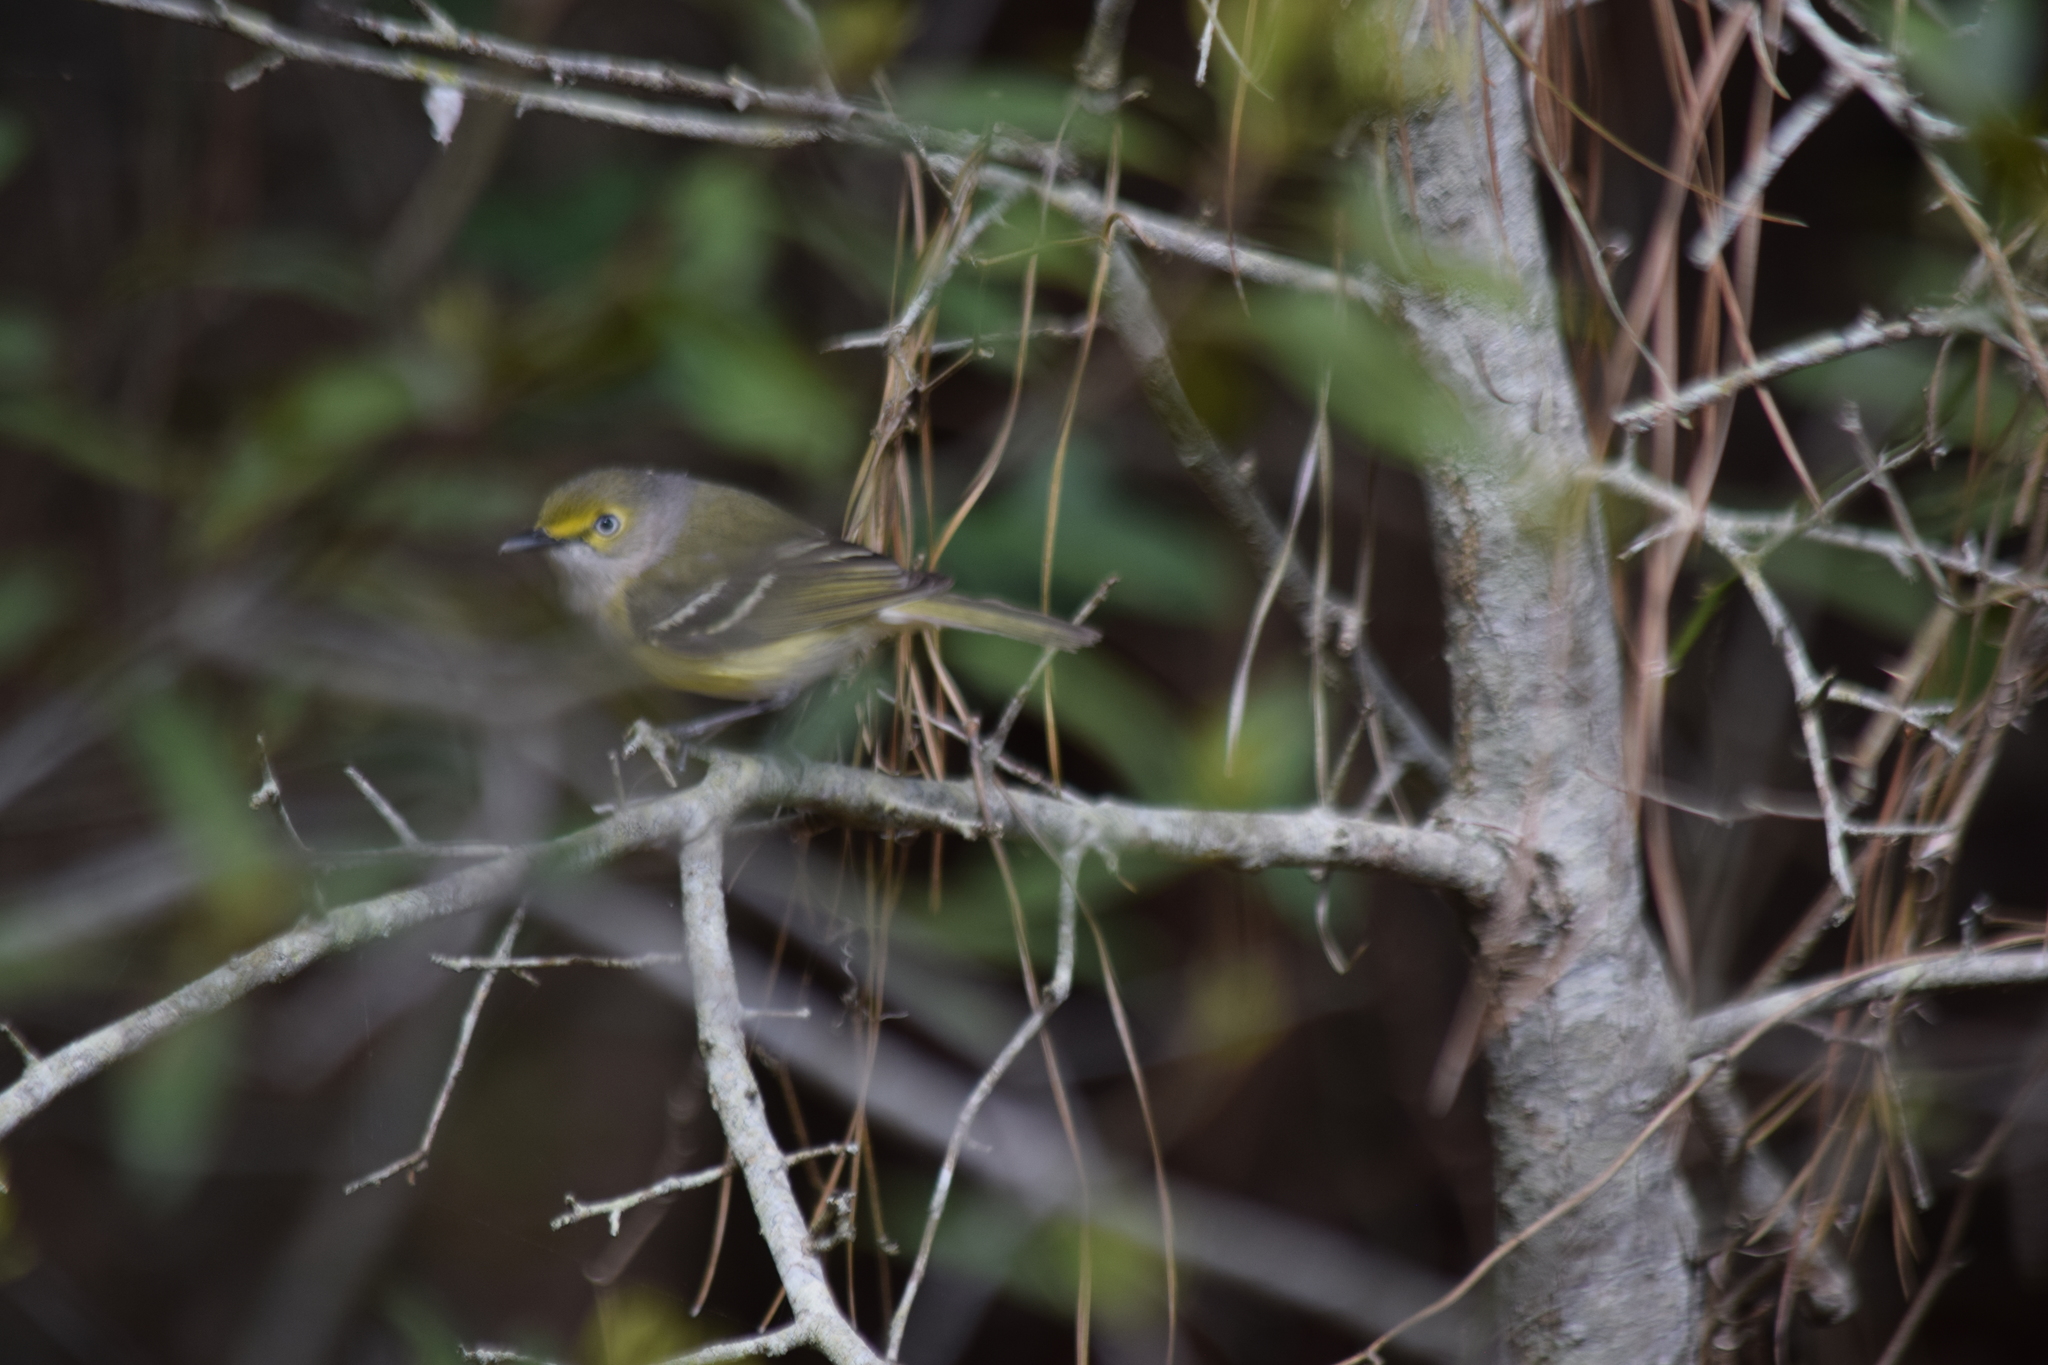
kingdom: Animalia
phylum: Chordata
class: Aves
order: Passeriformes
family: Vireonidae
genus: Vireo
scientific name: Vireo griseus
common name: White-eyed vireo
